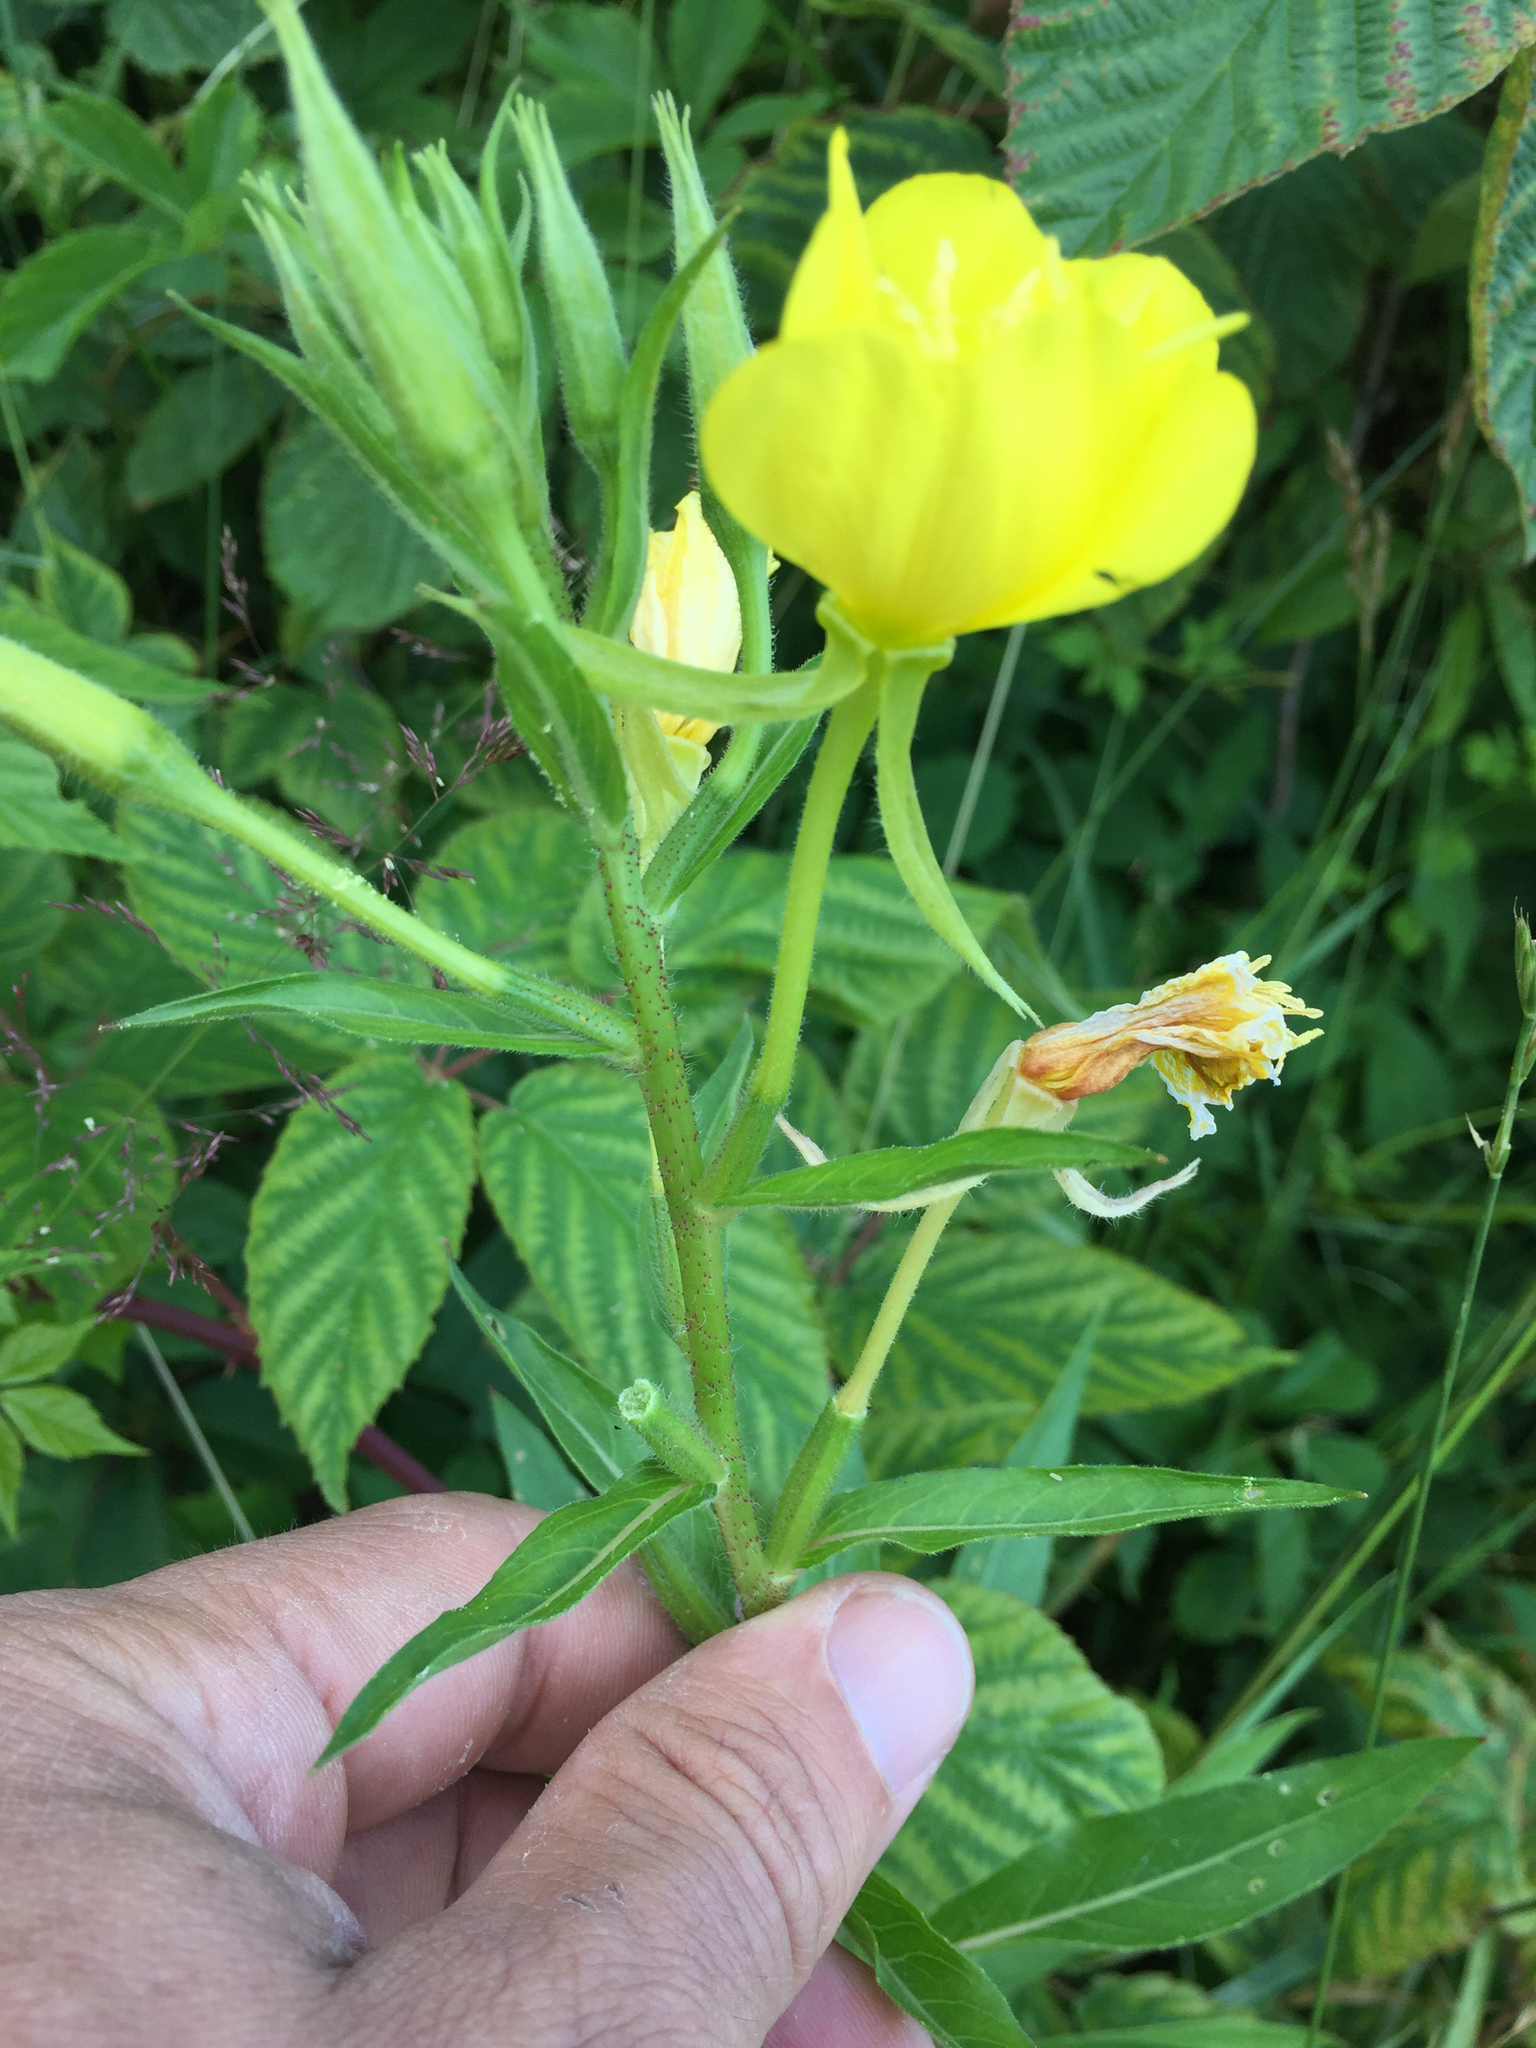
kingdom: Plantae
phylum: Tracheophyta
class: Magnoliopsida
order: Myrtales
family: Onagraceae
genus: Oenothera
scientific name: Oenothera biennis
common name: Common evening-primrose
